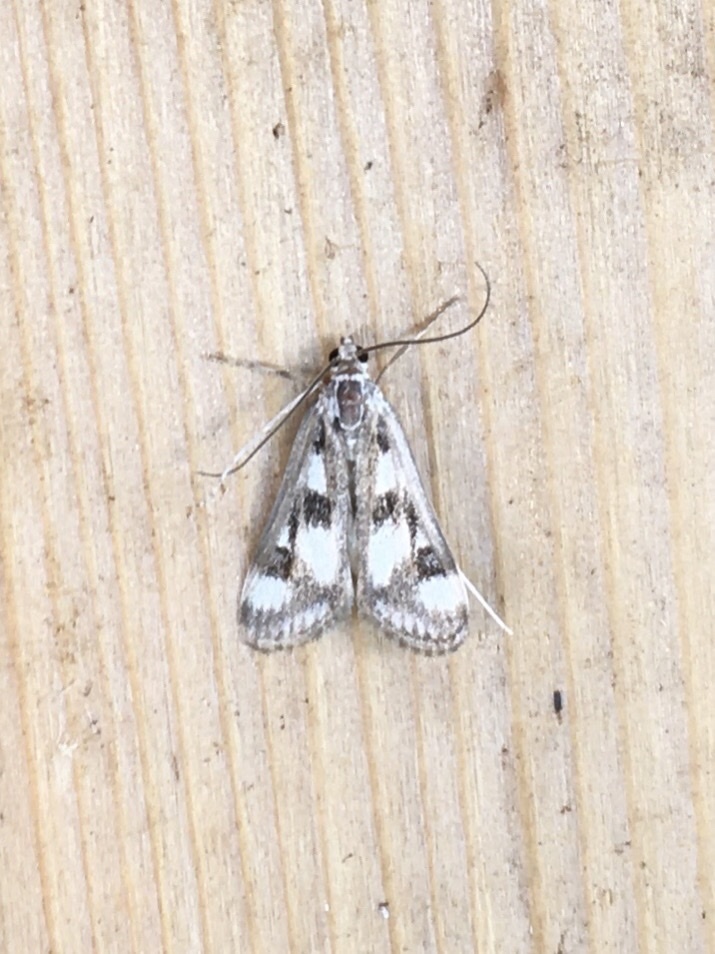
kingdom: Animalia
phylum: Arthropoda
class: Insecta
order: Lepidoptera
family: Crambidae
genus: Parapoynx
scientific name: Parapoynx maculalis
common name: Polymorphic pondweed moth
